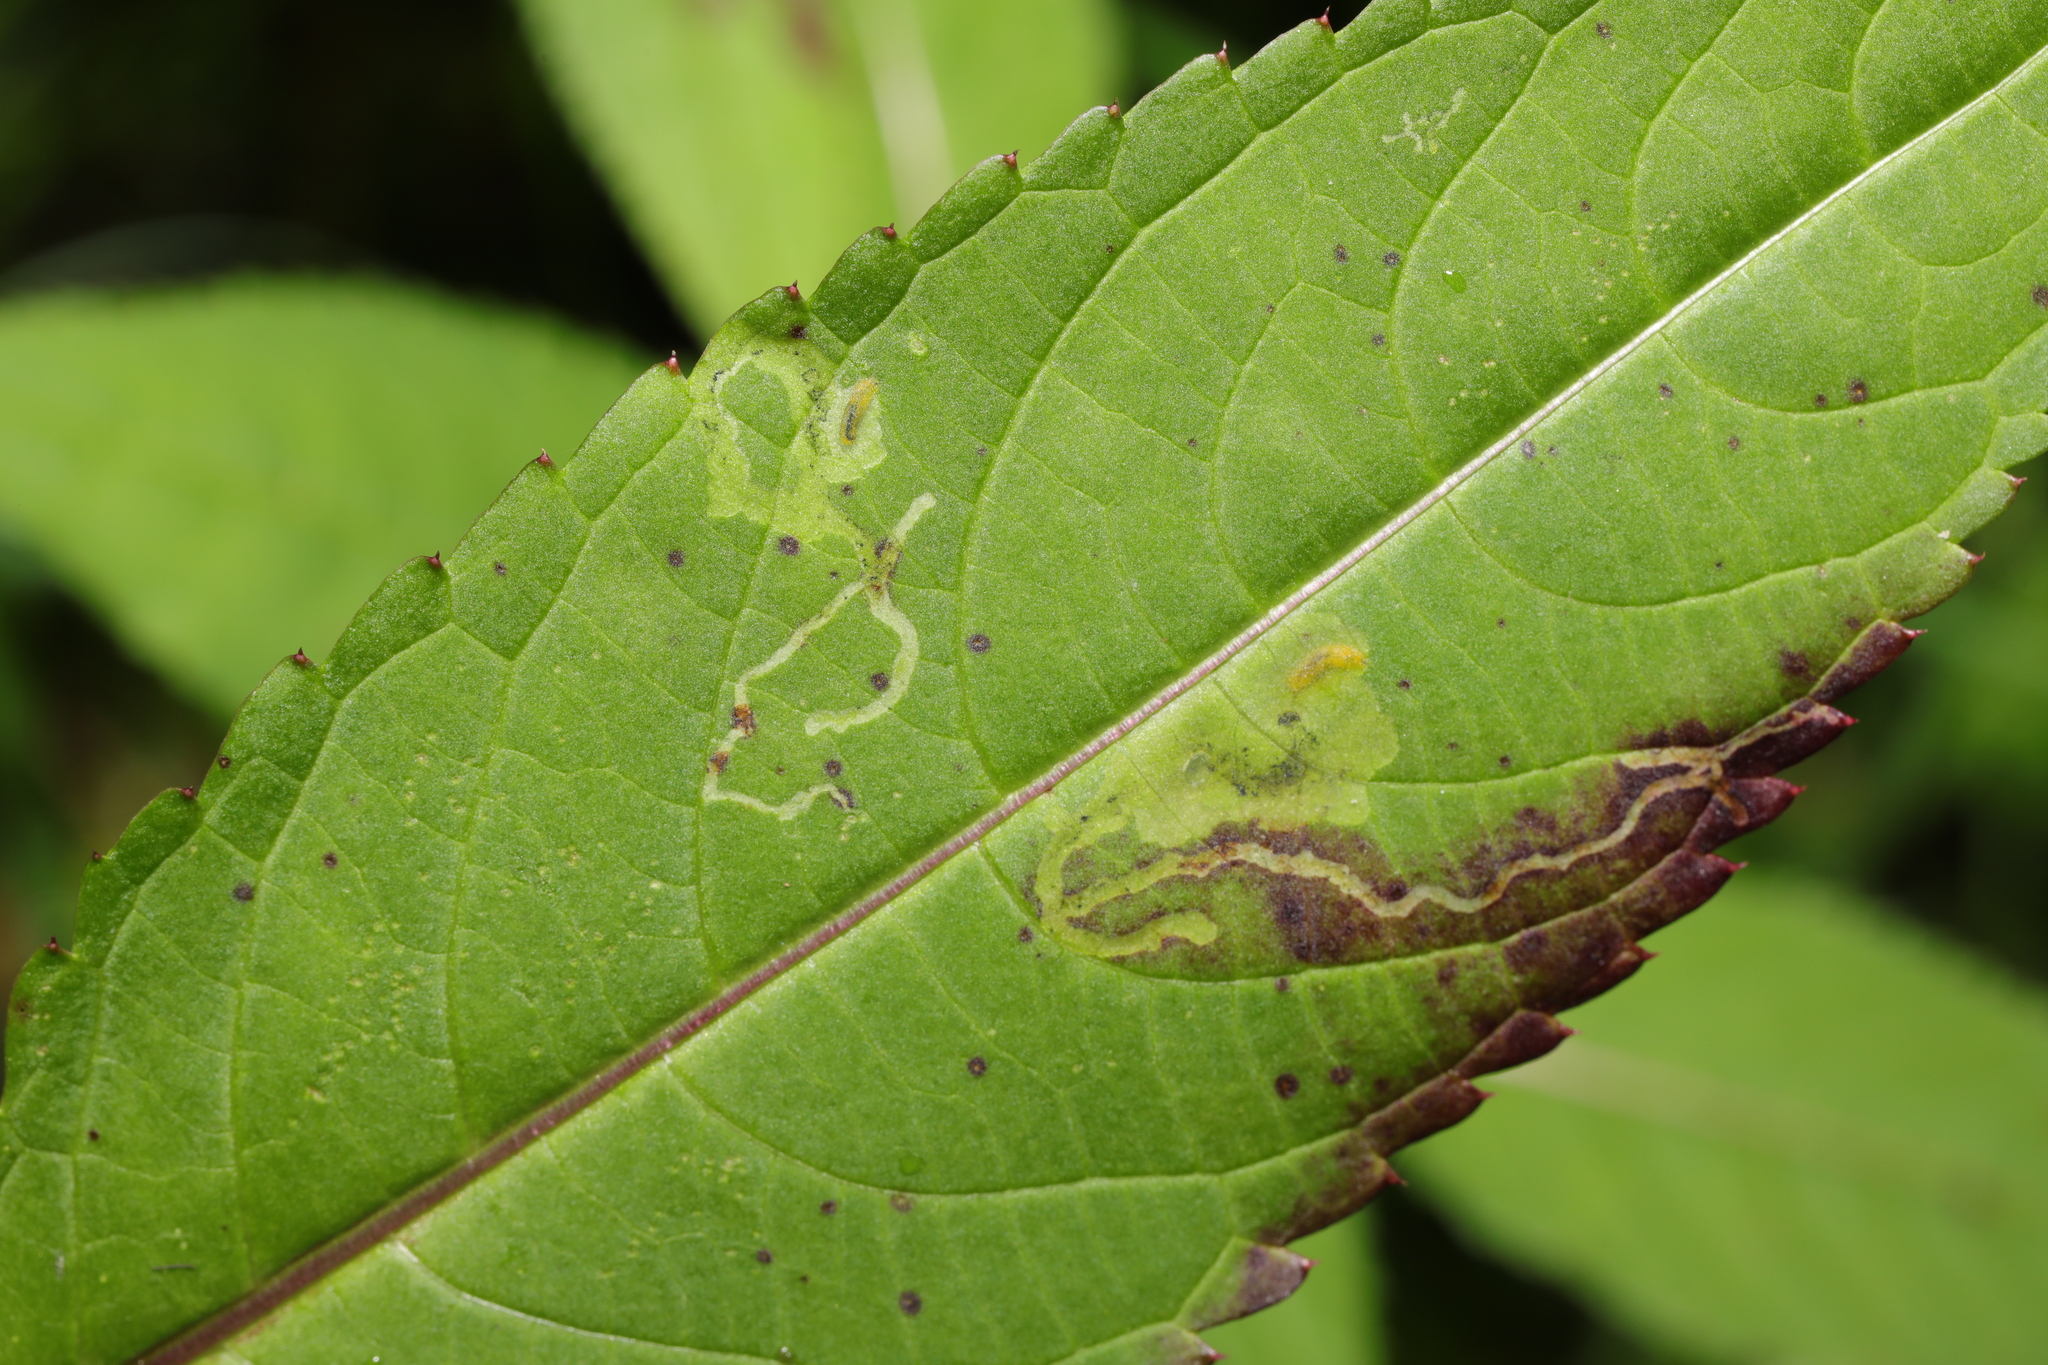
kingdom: Animalia
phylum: Arthropoda
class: Insecta
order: Diptera
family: Agromyzidae
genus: Phytoliriomyza
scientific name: Phytoliriomyza melampyga
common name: Jewelweed leaf-miner fly
